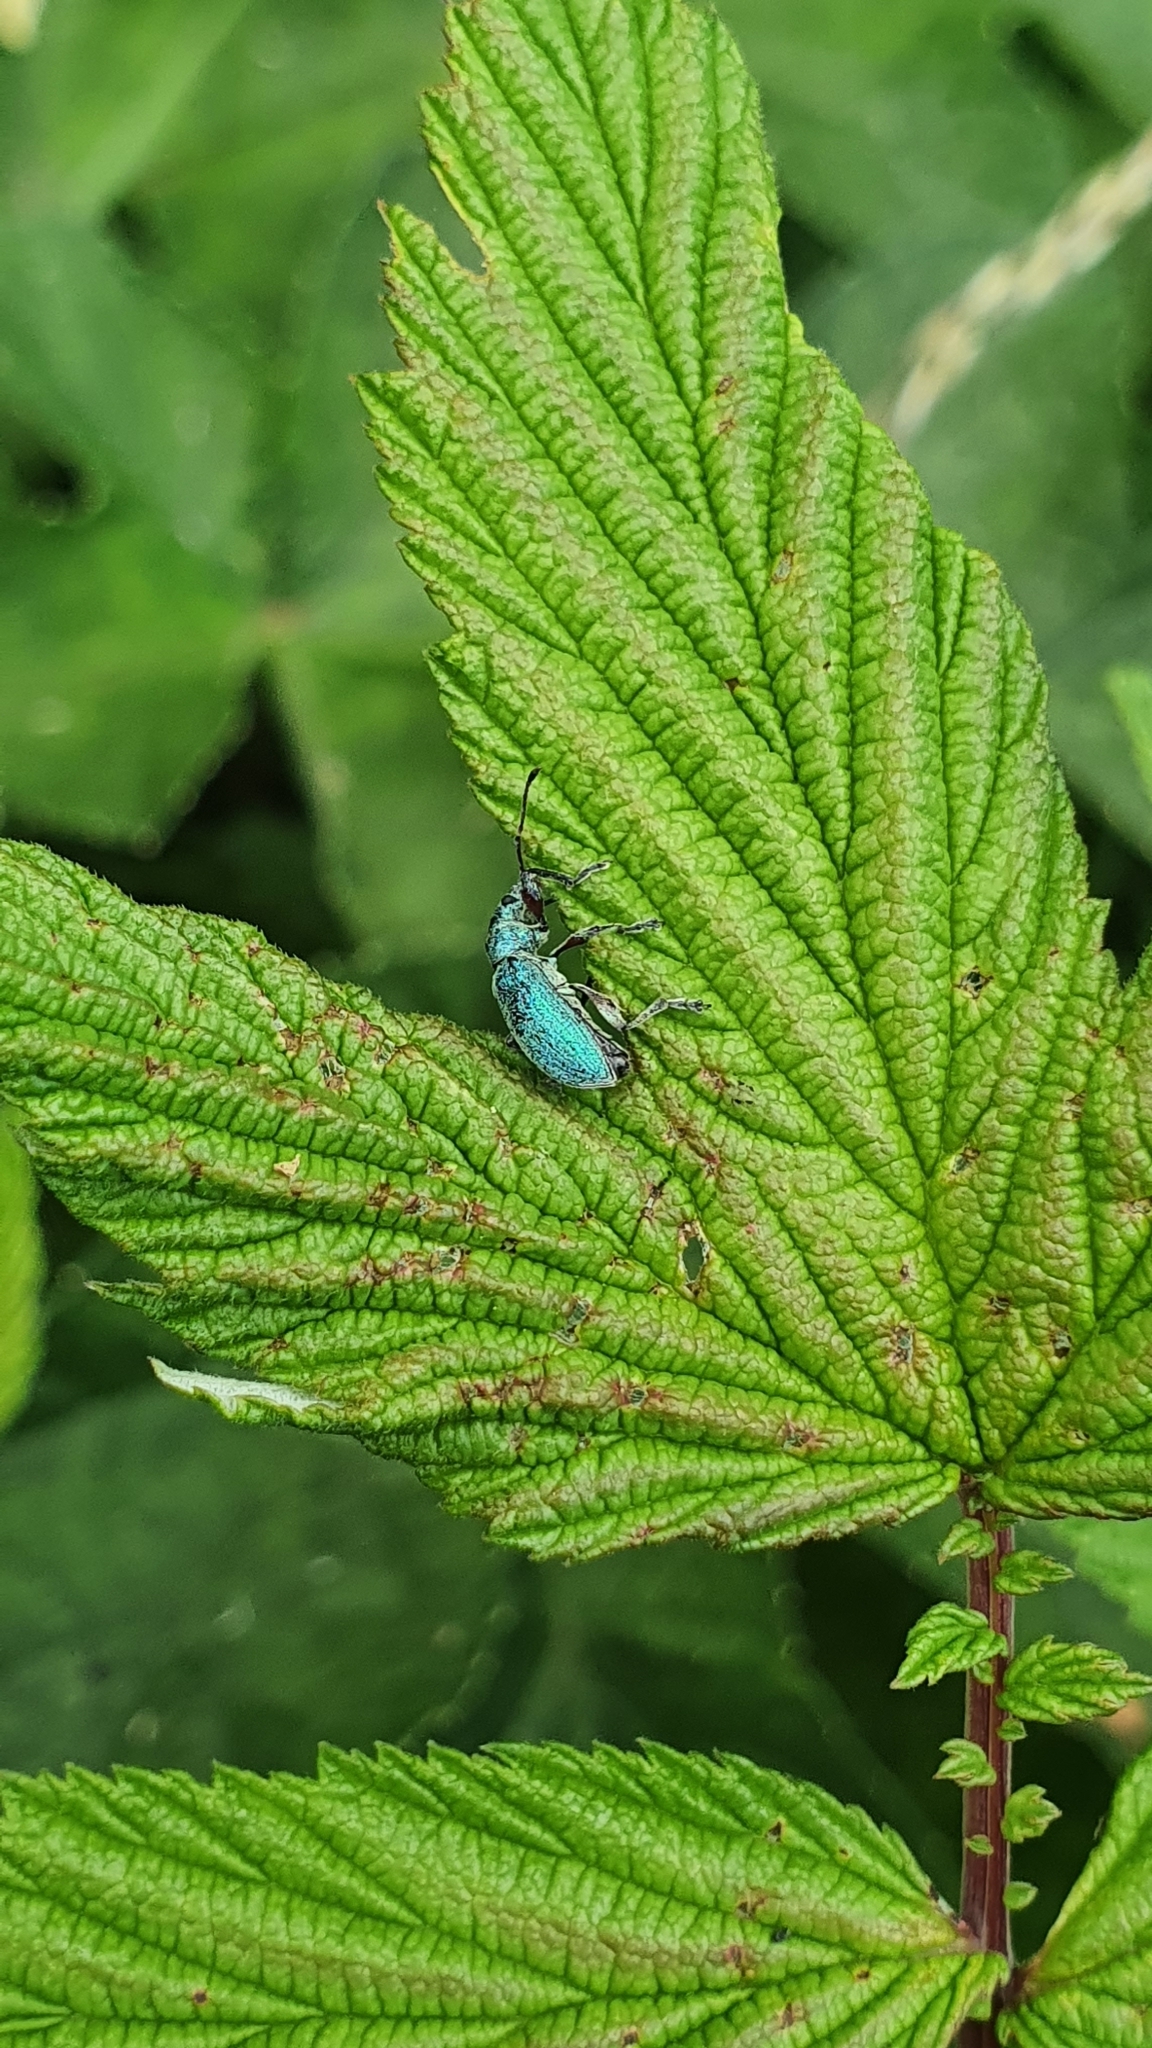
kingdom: Animalia
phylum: Arthropoda
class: Insecta
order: Coleoptera
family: Curculionidae
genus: Phyllobius
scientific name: Phyllobius pomaceus
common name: Green nettle weevil
